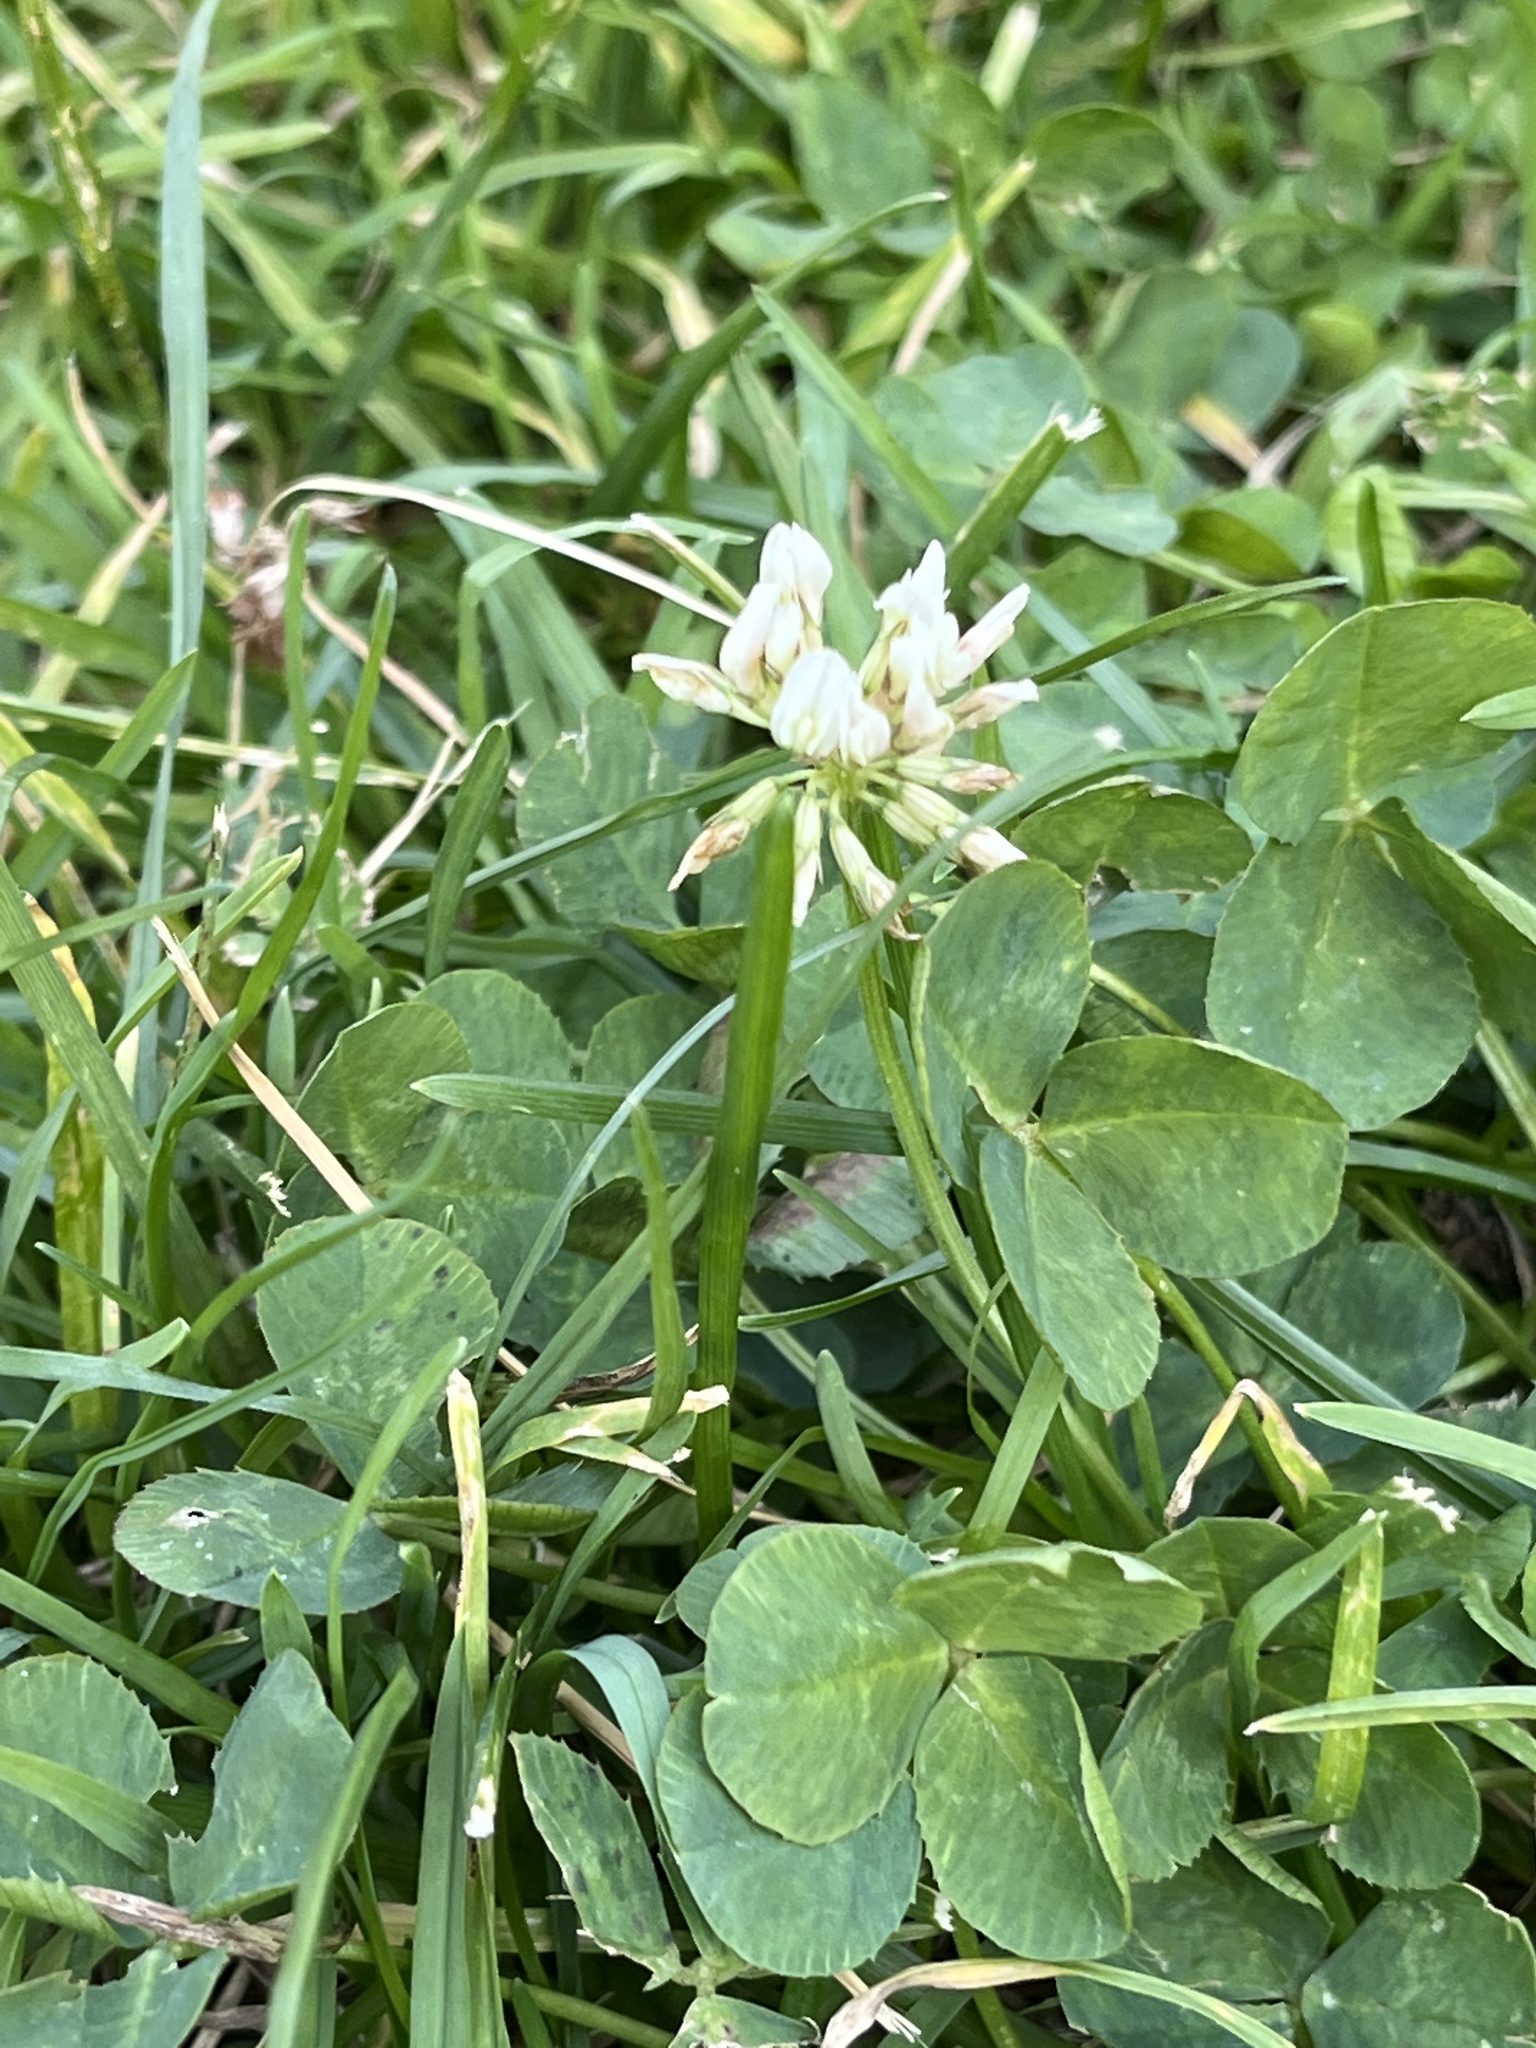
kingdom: Plantae
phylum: Tracheophyta
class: Magnoliopsida
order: Fabales
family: Fabaceae
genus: Trifolium
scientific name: Trifolium repens
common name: White clover
